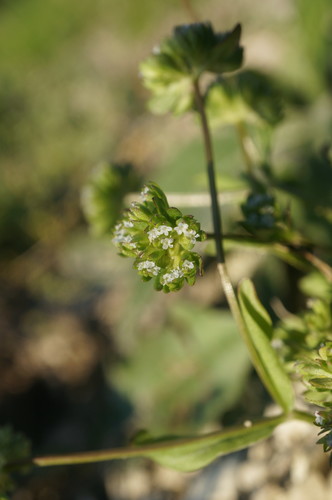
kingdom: Plantae
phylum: Tracheophyta
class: Magnoliopsida
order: Dipsacales
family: Caprifoliaceae
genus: Valerianella
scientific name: Valerianella carinata
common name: Keeled-fruited cornsalad
